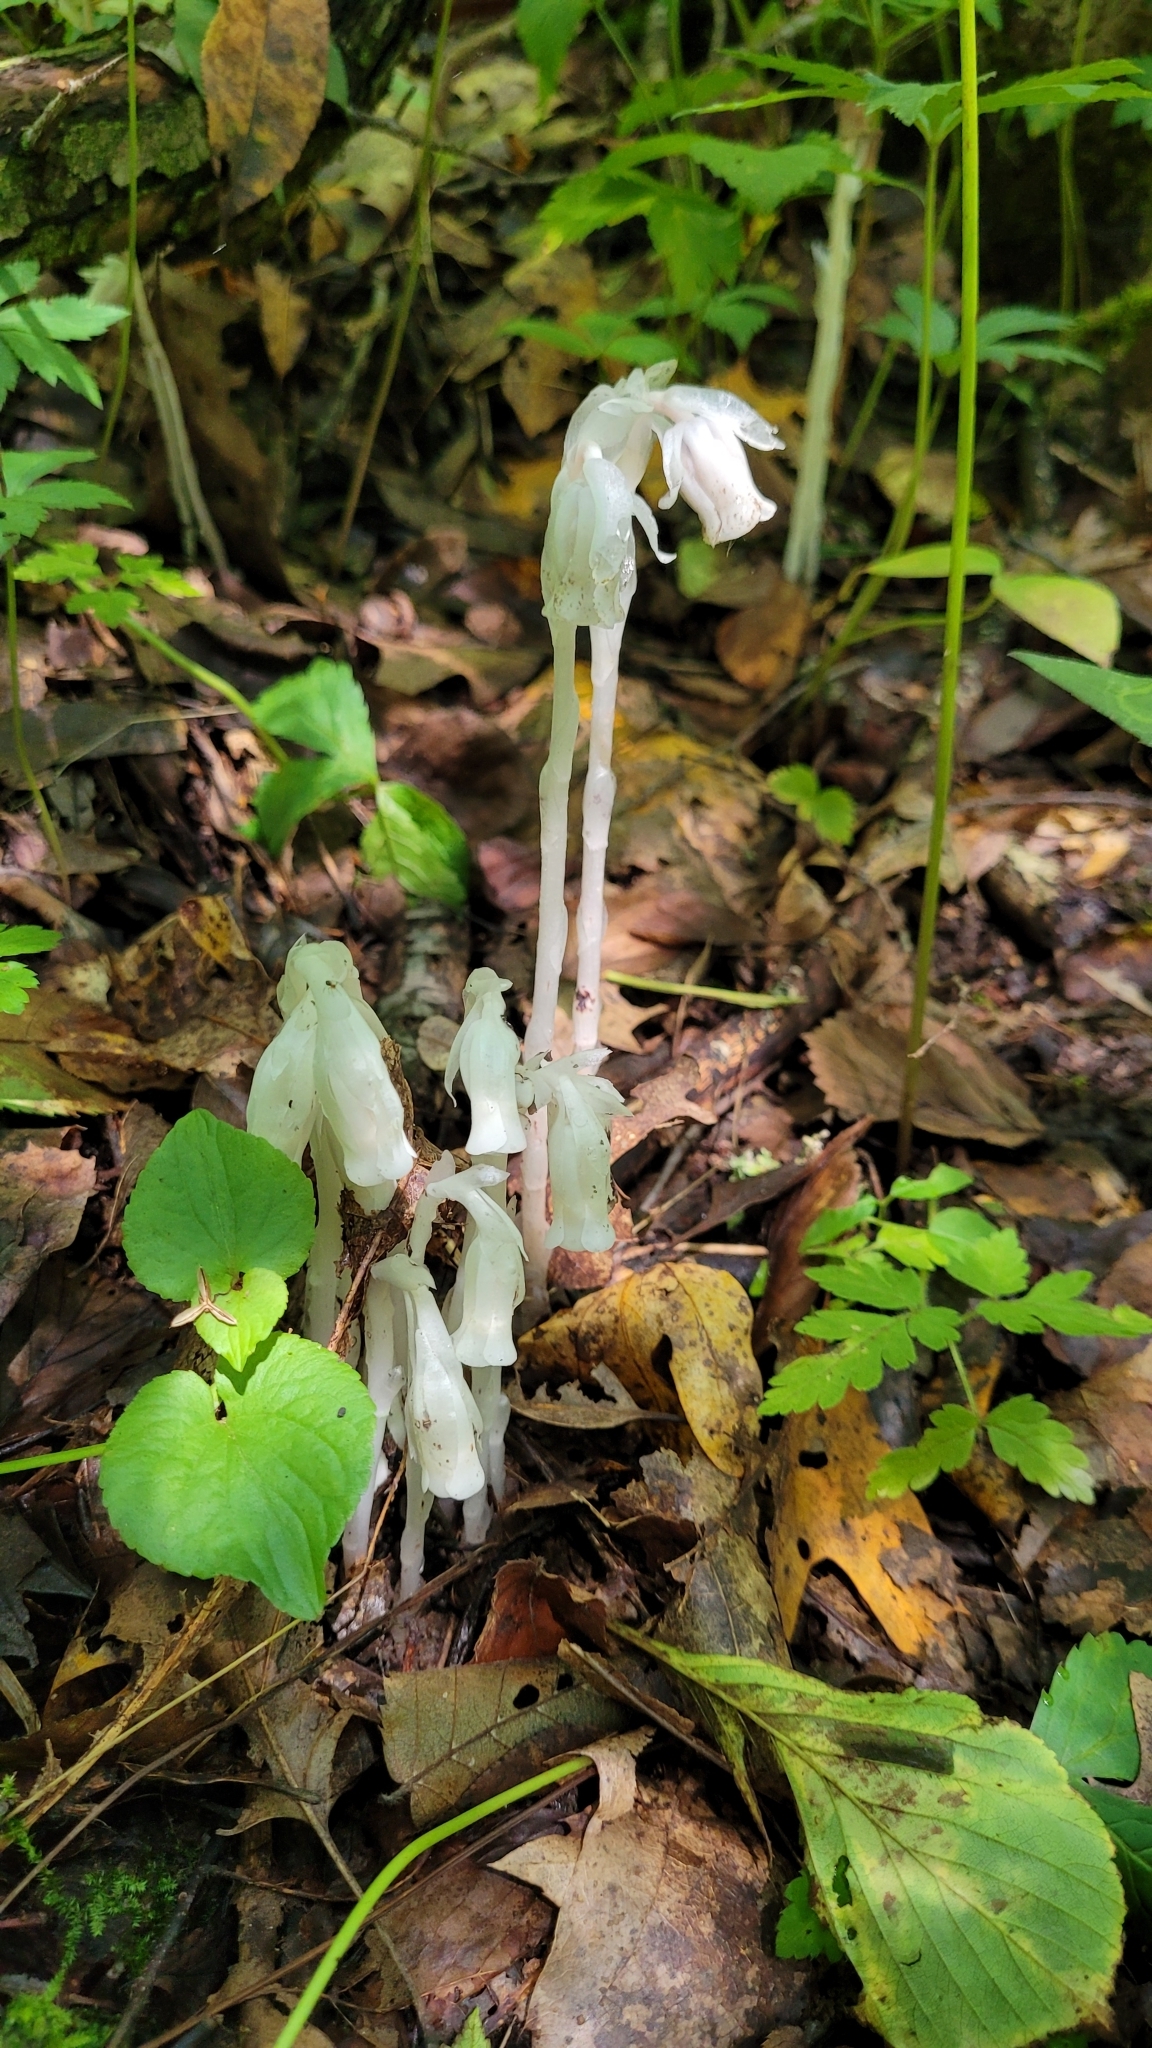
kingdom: Plantae
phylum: Tracheophyta
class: Magnoliopsida
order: Ericales
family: Ericaceae
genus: Monotropa
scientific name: Monotropa uniflora
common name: Convulsion root
